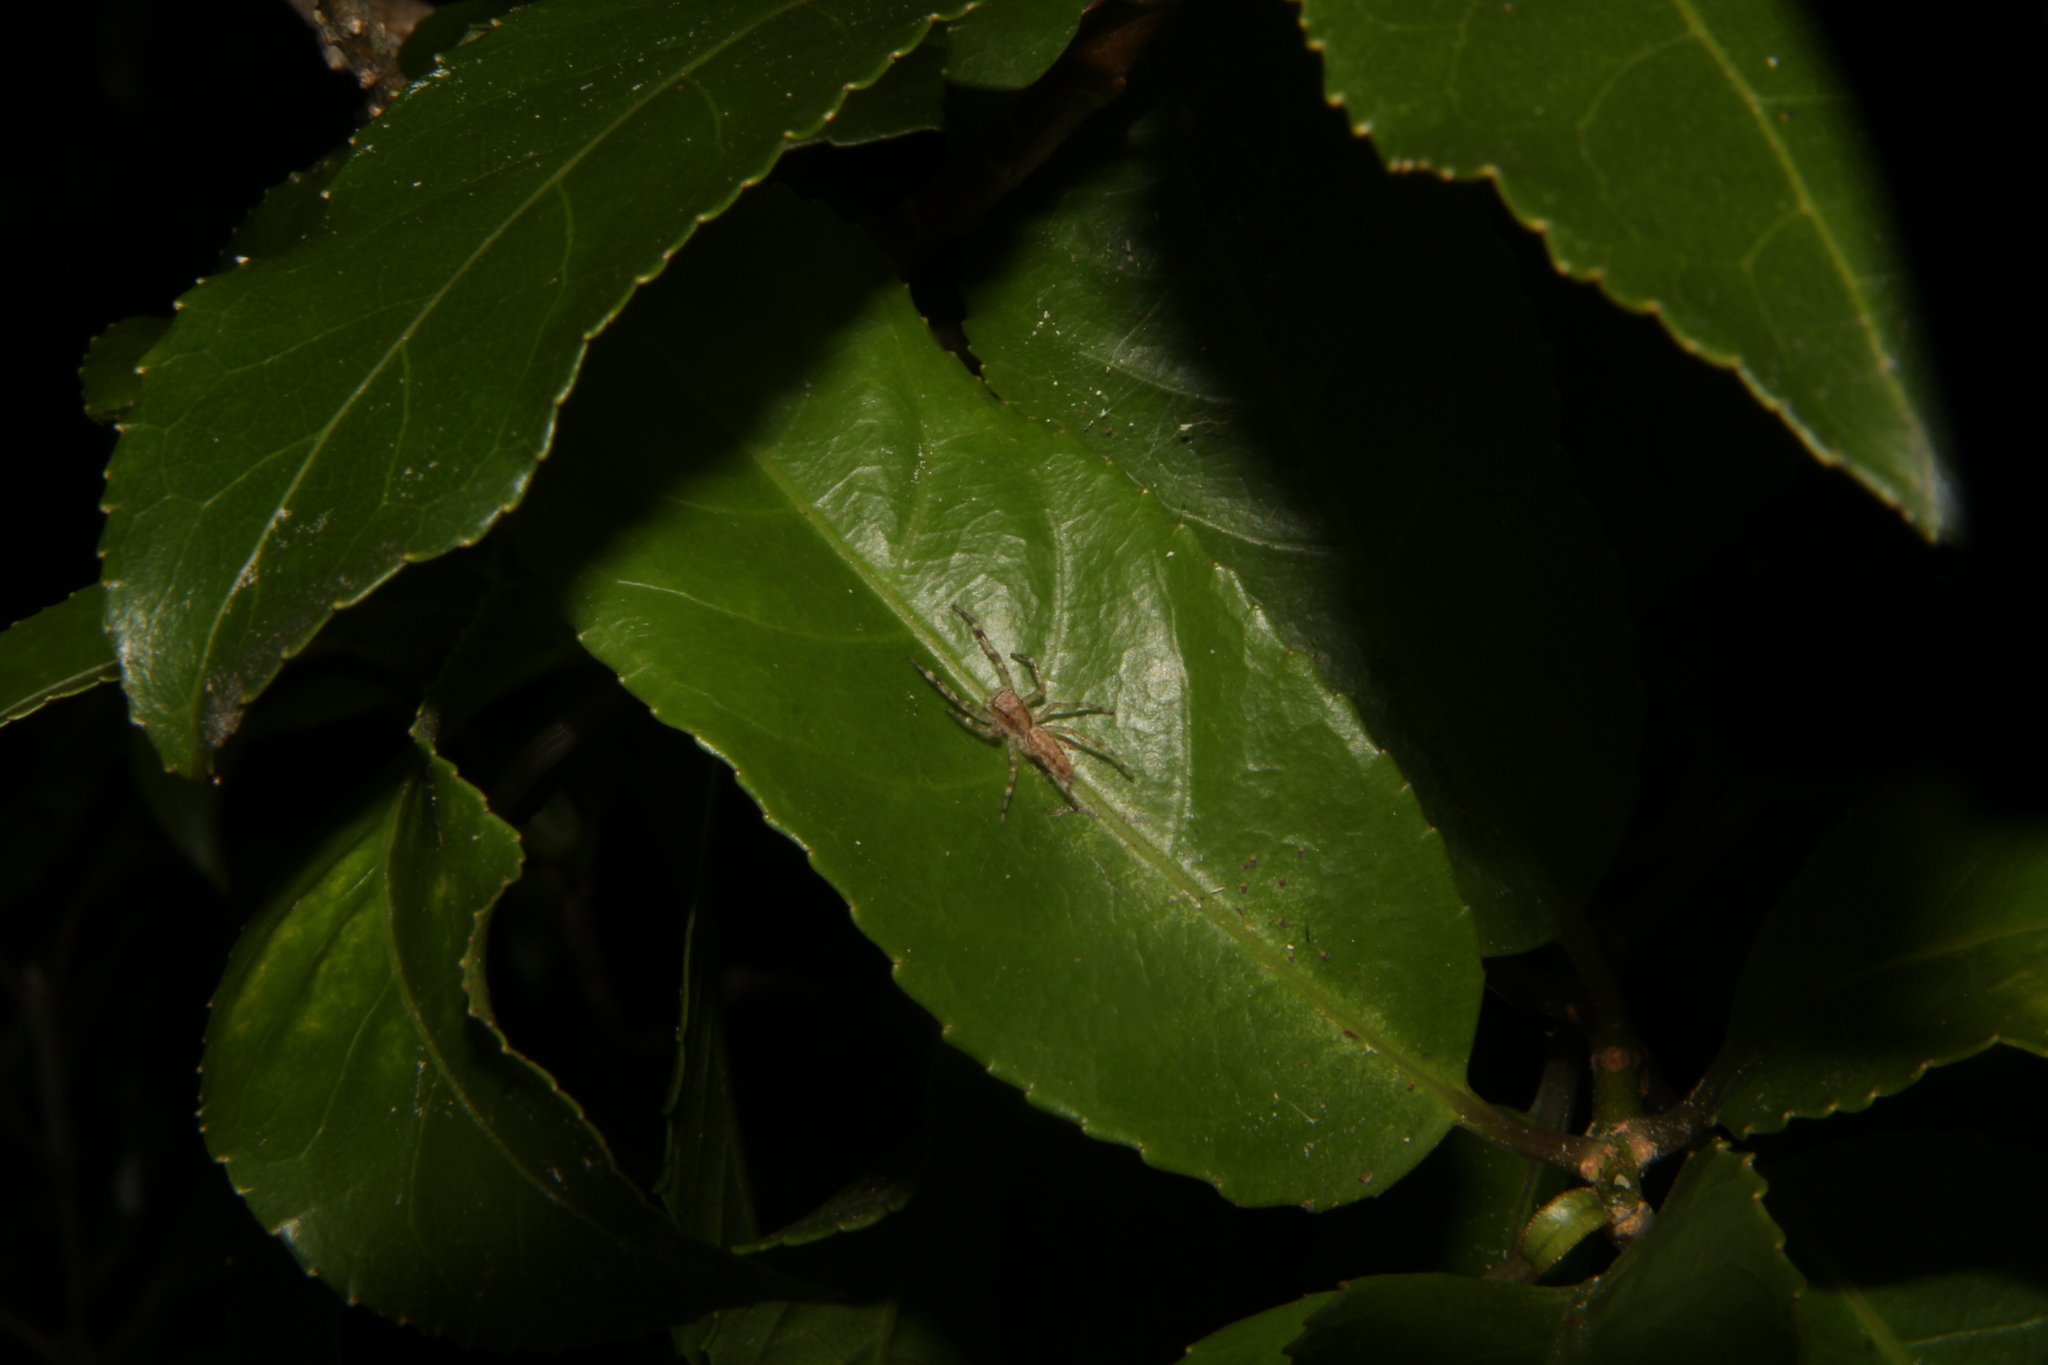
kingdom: Animalia
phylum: Arthropoda
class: Arachnida
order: Araneae
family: Salticidae
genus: Helpis
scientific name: Helpis minitabunda
